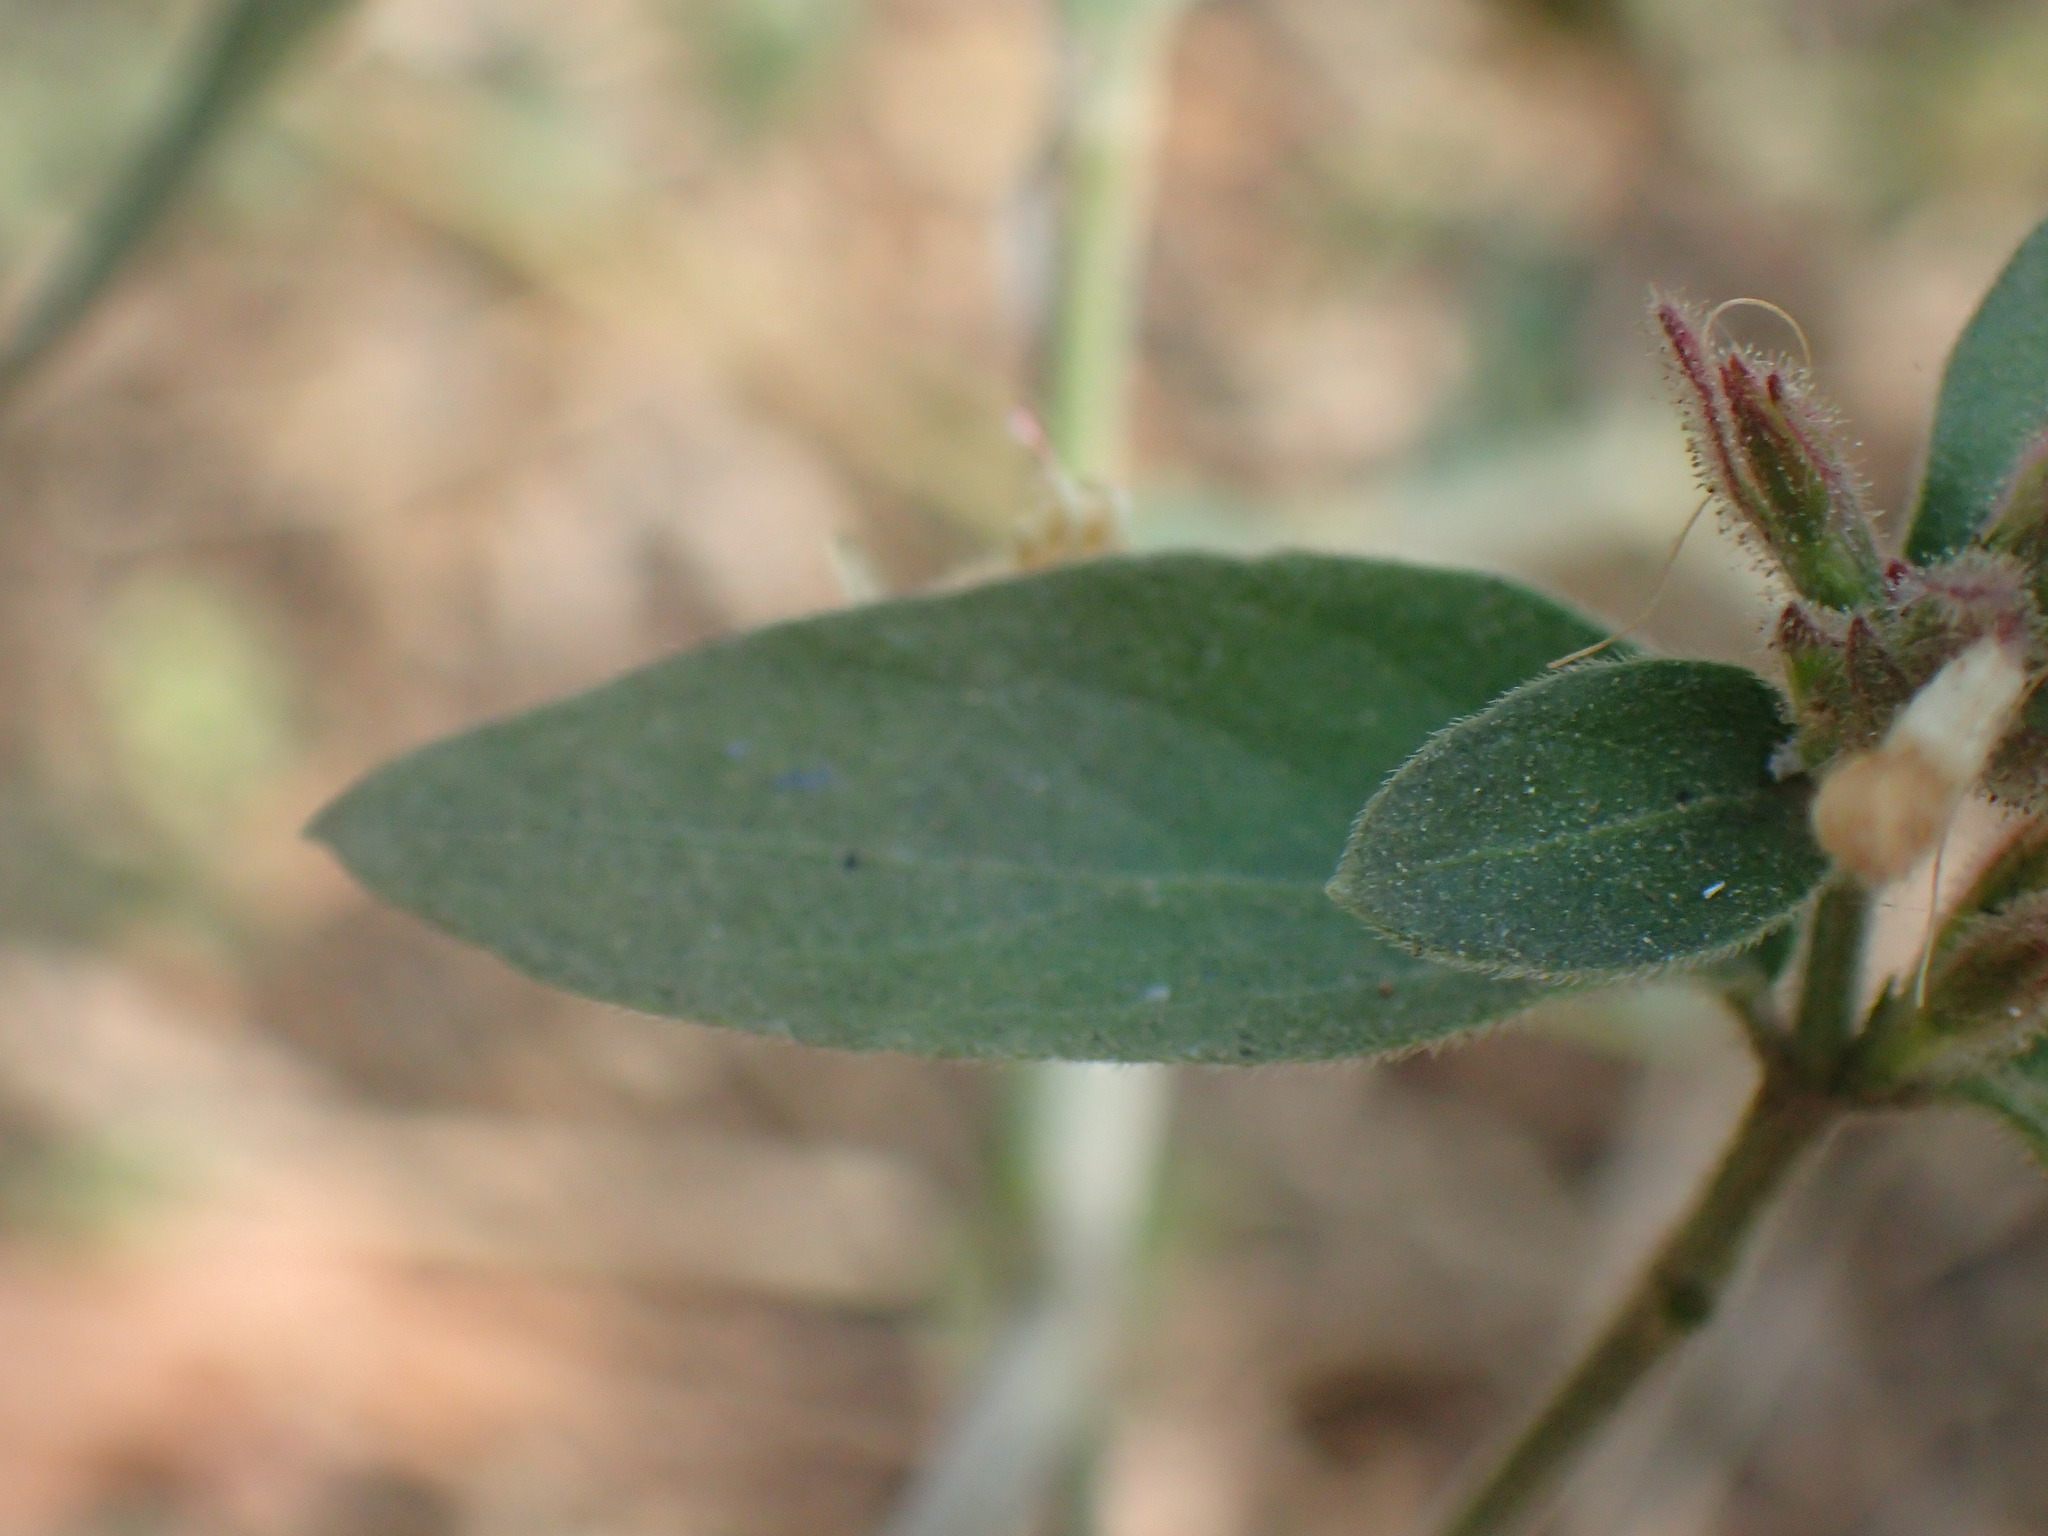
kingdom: Plantae
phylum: Tracheophyta
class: Magnoliopsida
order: Lamiales
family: Acanthaceae
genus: Hypoestes
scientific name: Hypoestes forskaolii
